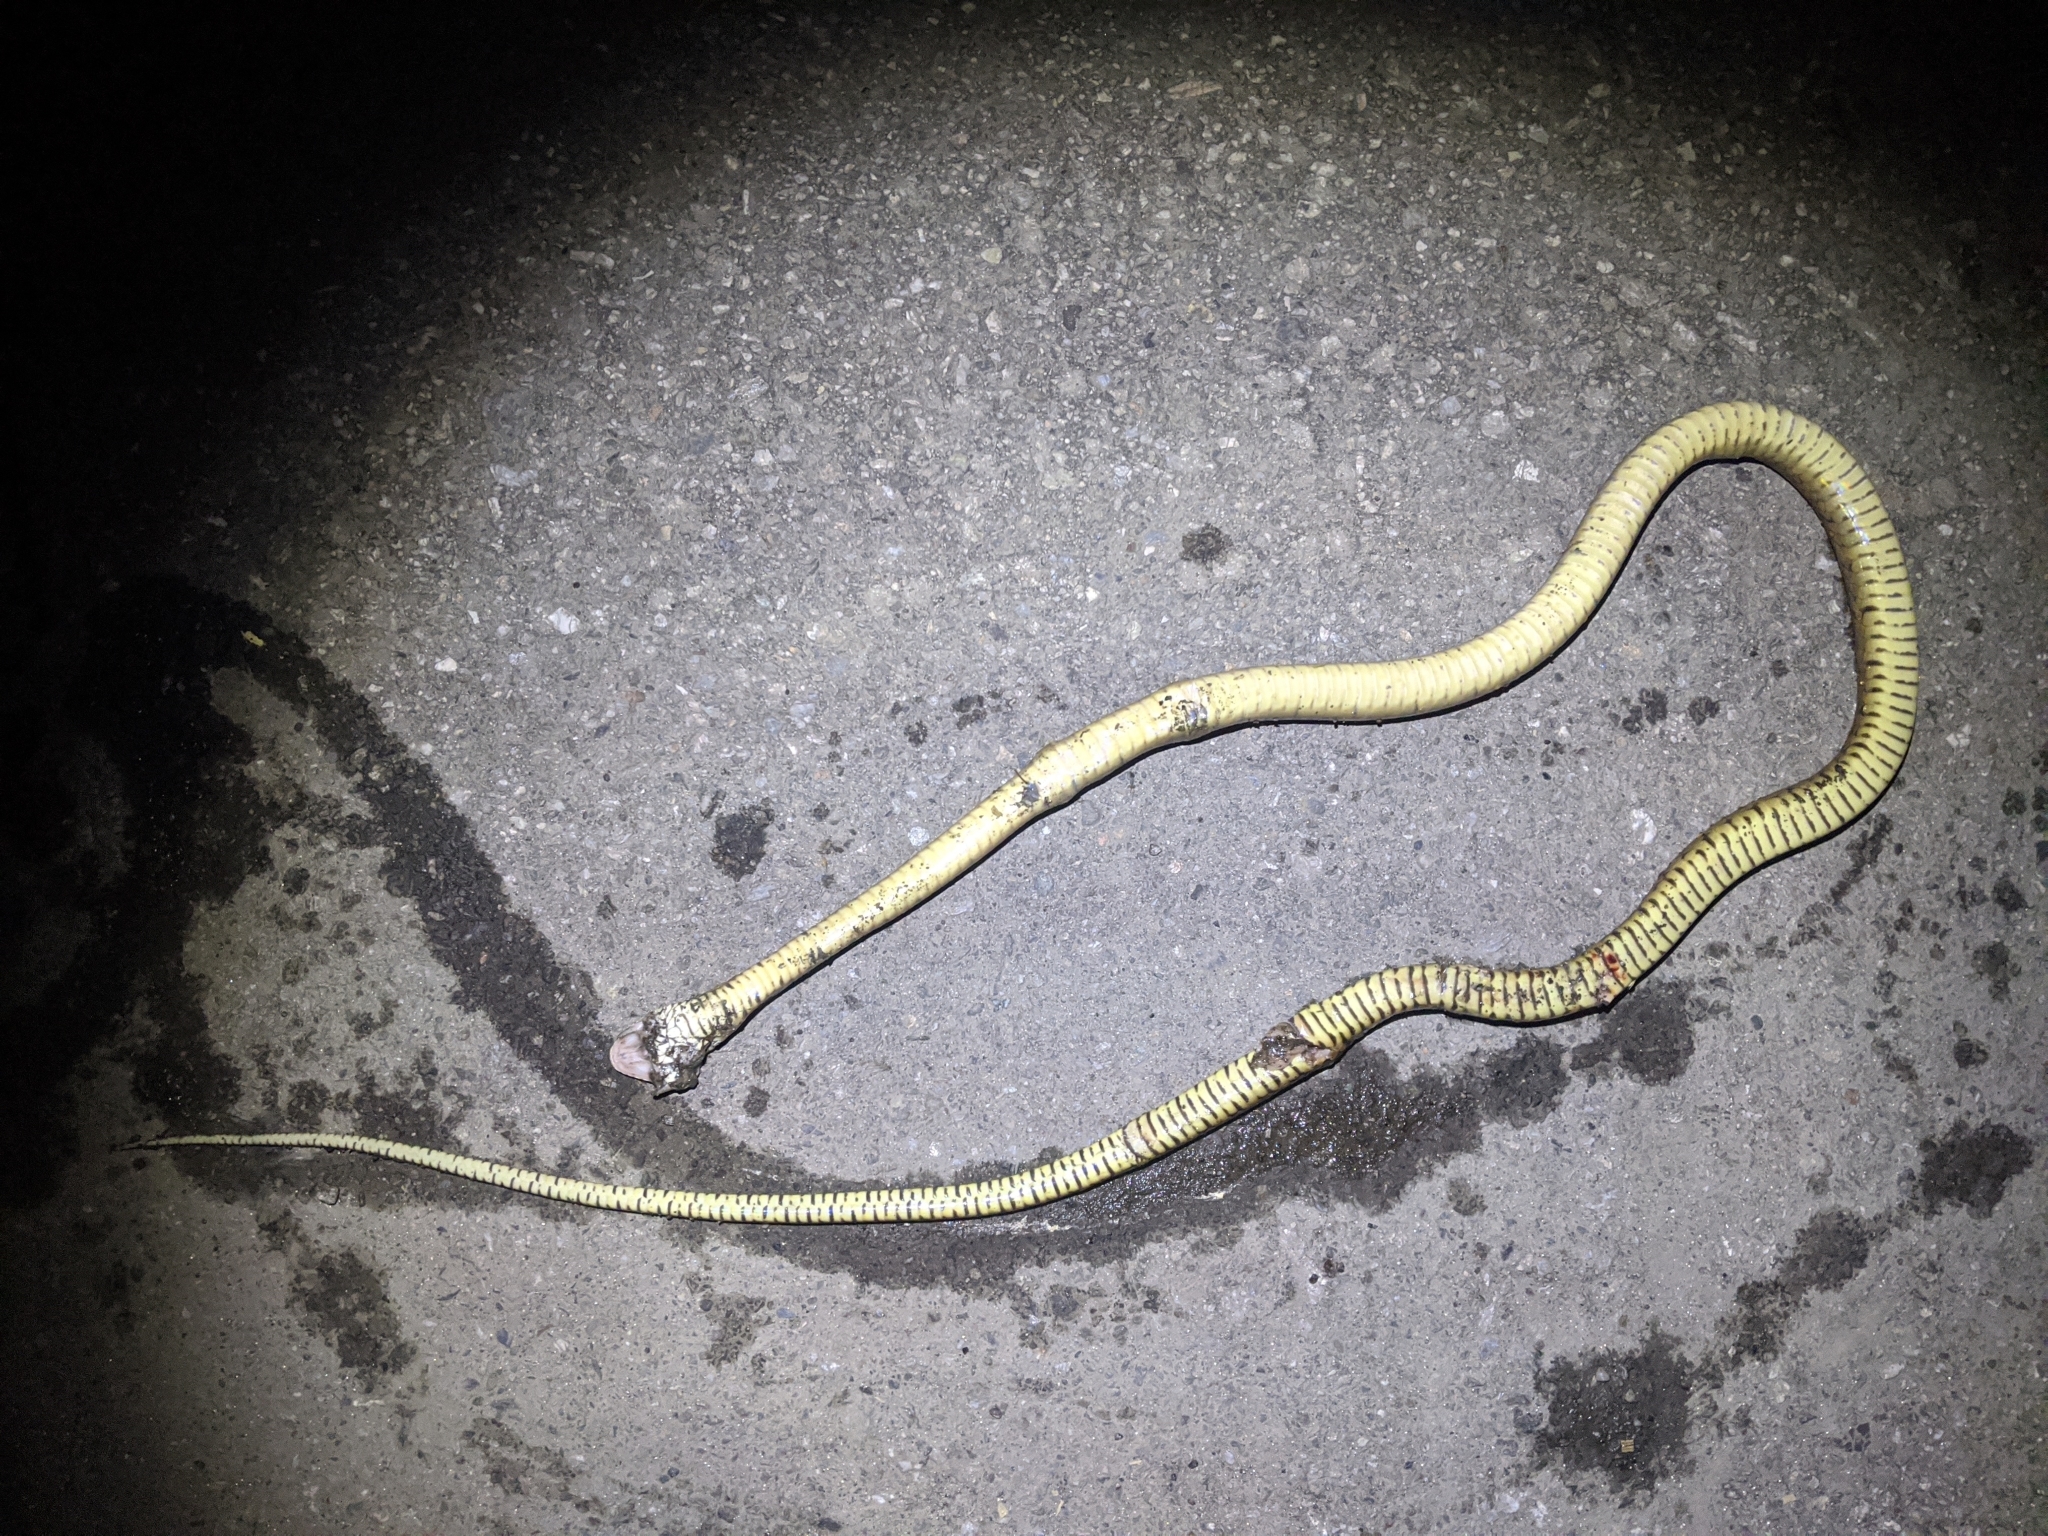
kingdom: Animalia
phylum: Chordata
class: Squamata
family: Colubridae
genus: Ptyas
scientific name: Ptyas mucosa
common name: Oriental ratsnake
